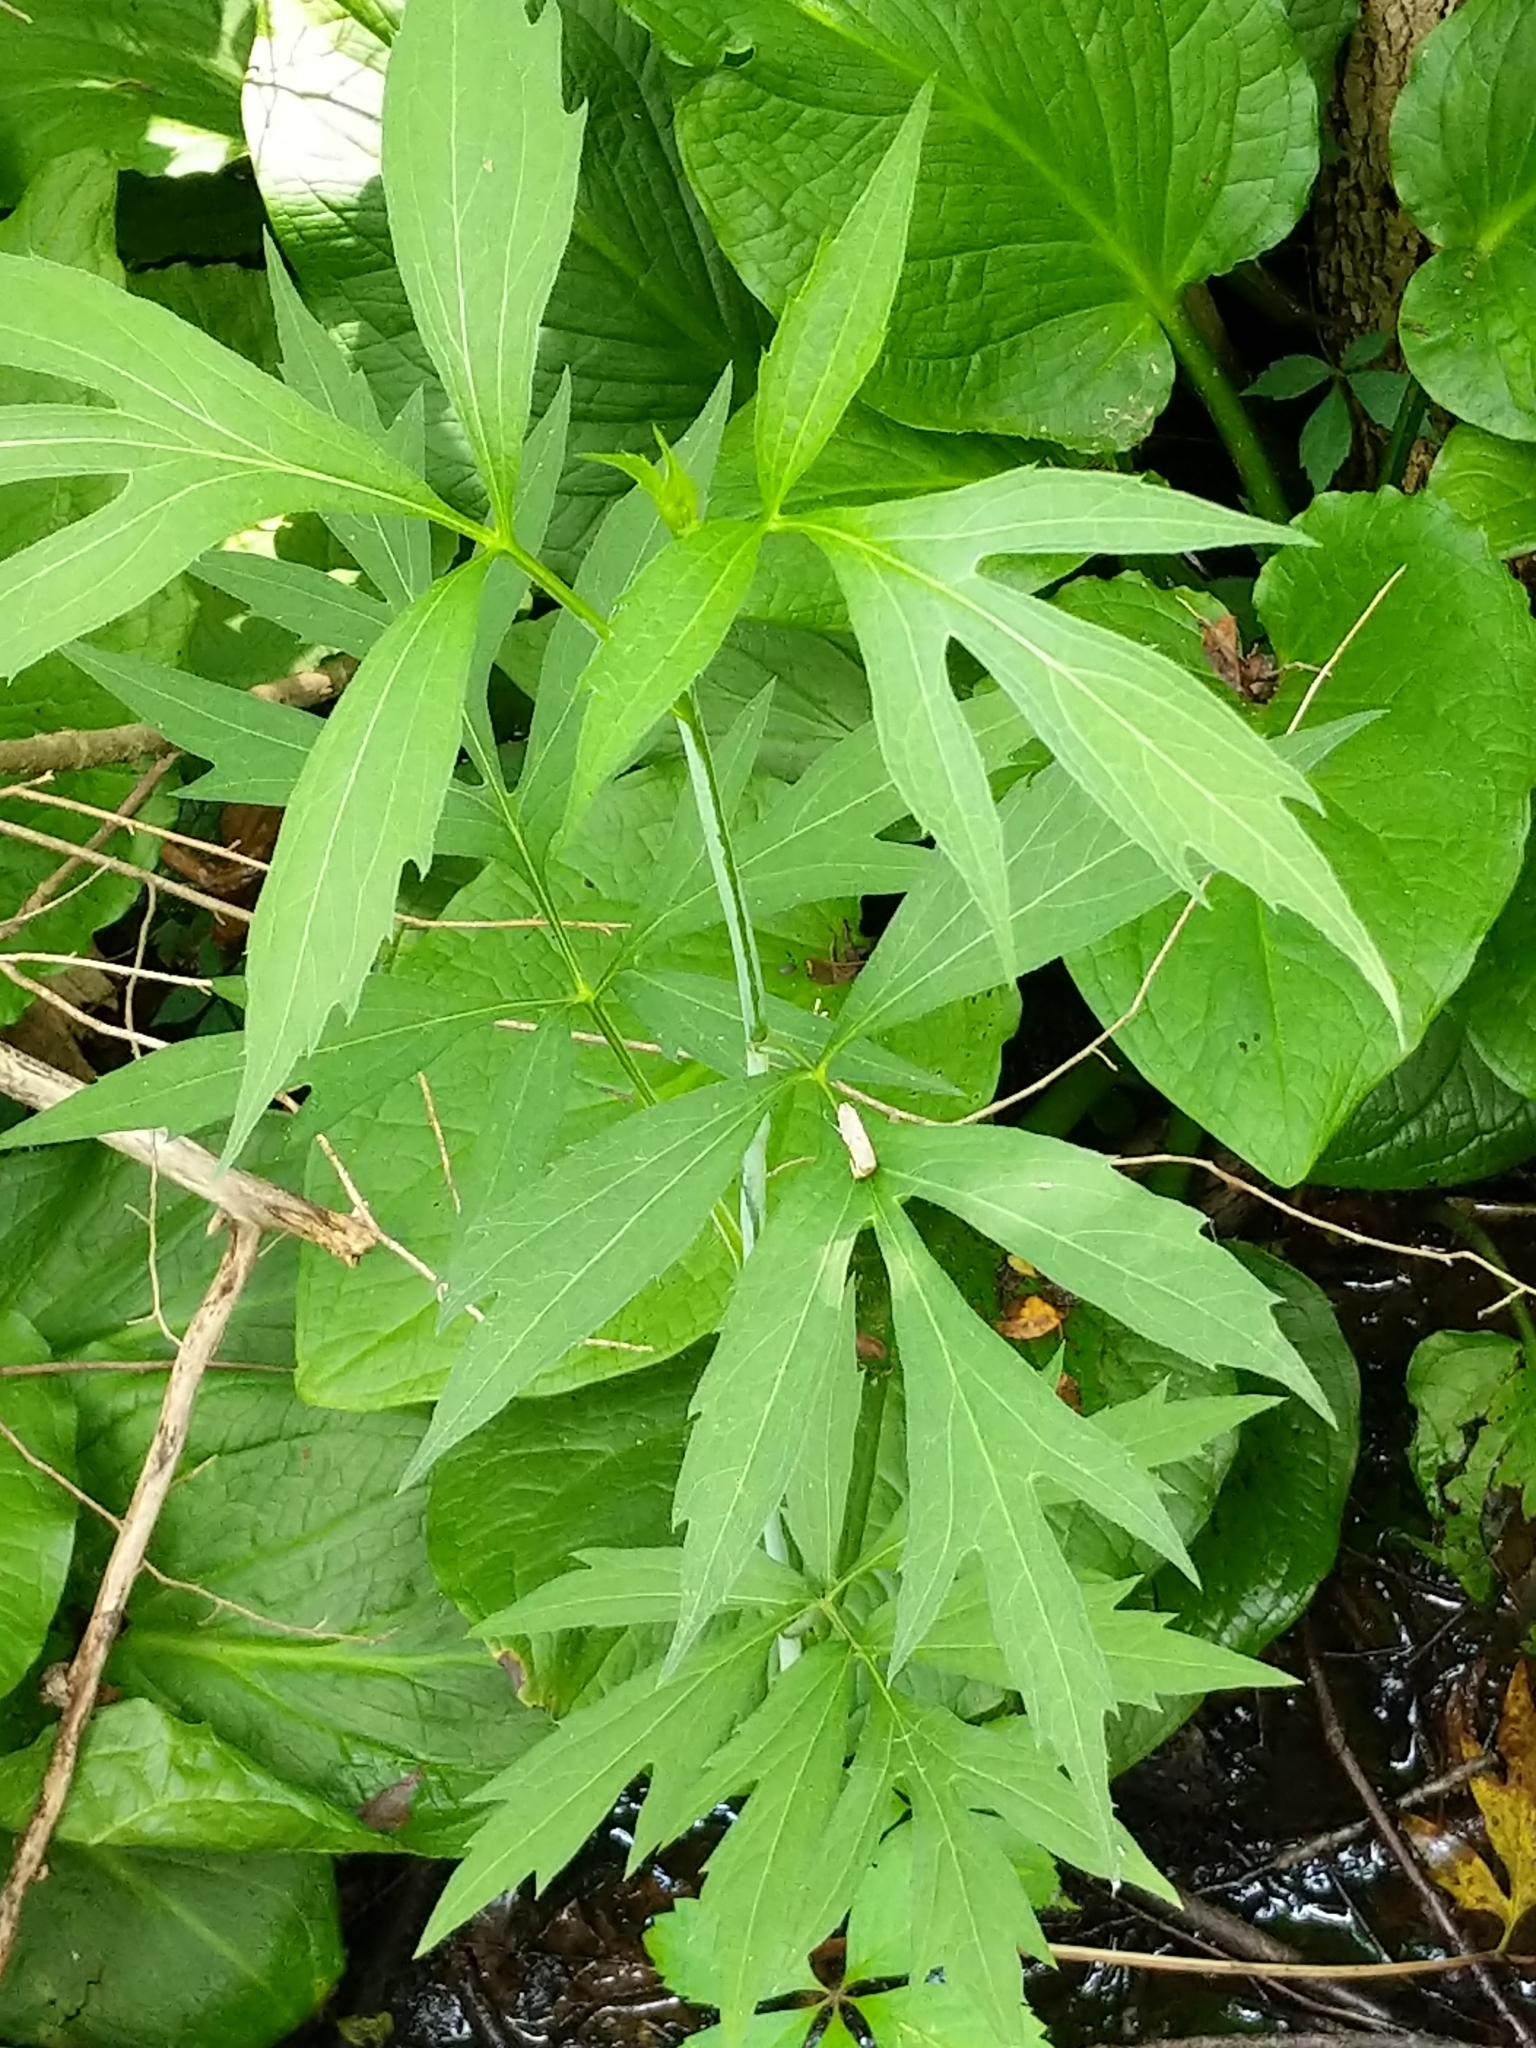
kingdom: Plantae
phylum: Tracheophyta
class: Magnoliopsida
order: Asterales
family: Asteraceae
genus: Rudbeckia
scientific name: Rudbeckia laciniata
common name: Coneflower
